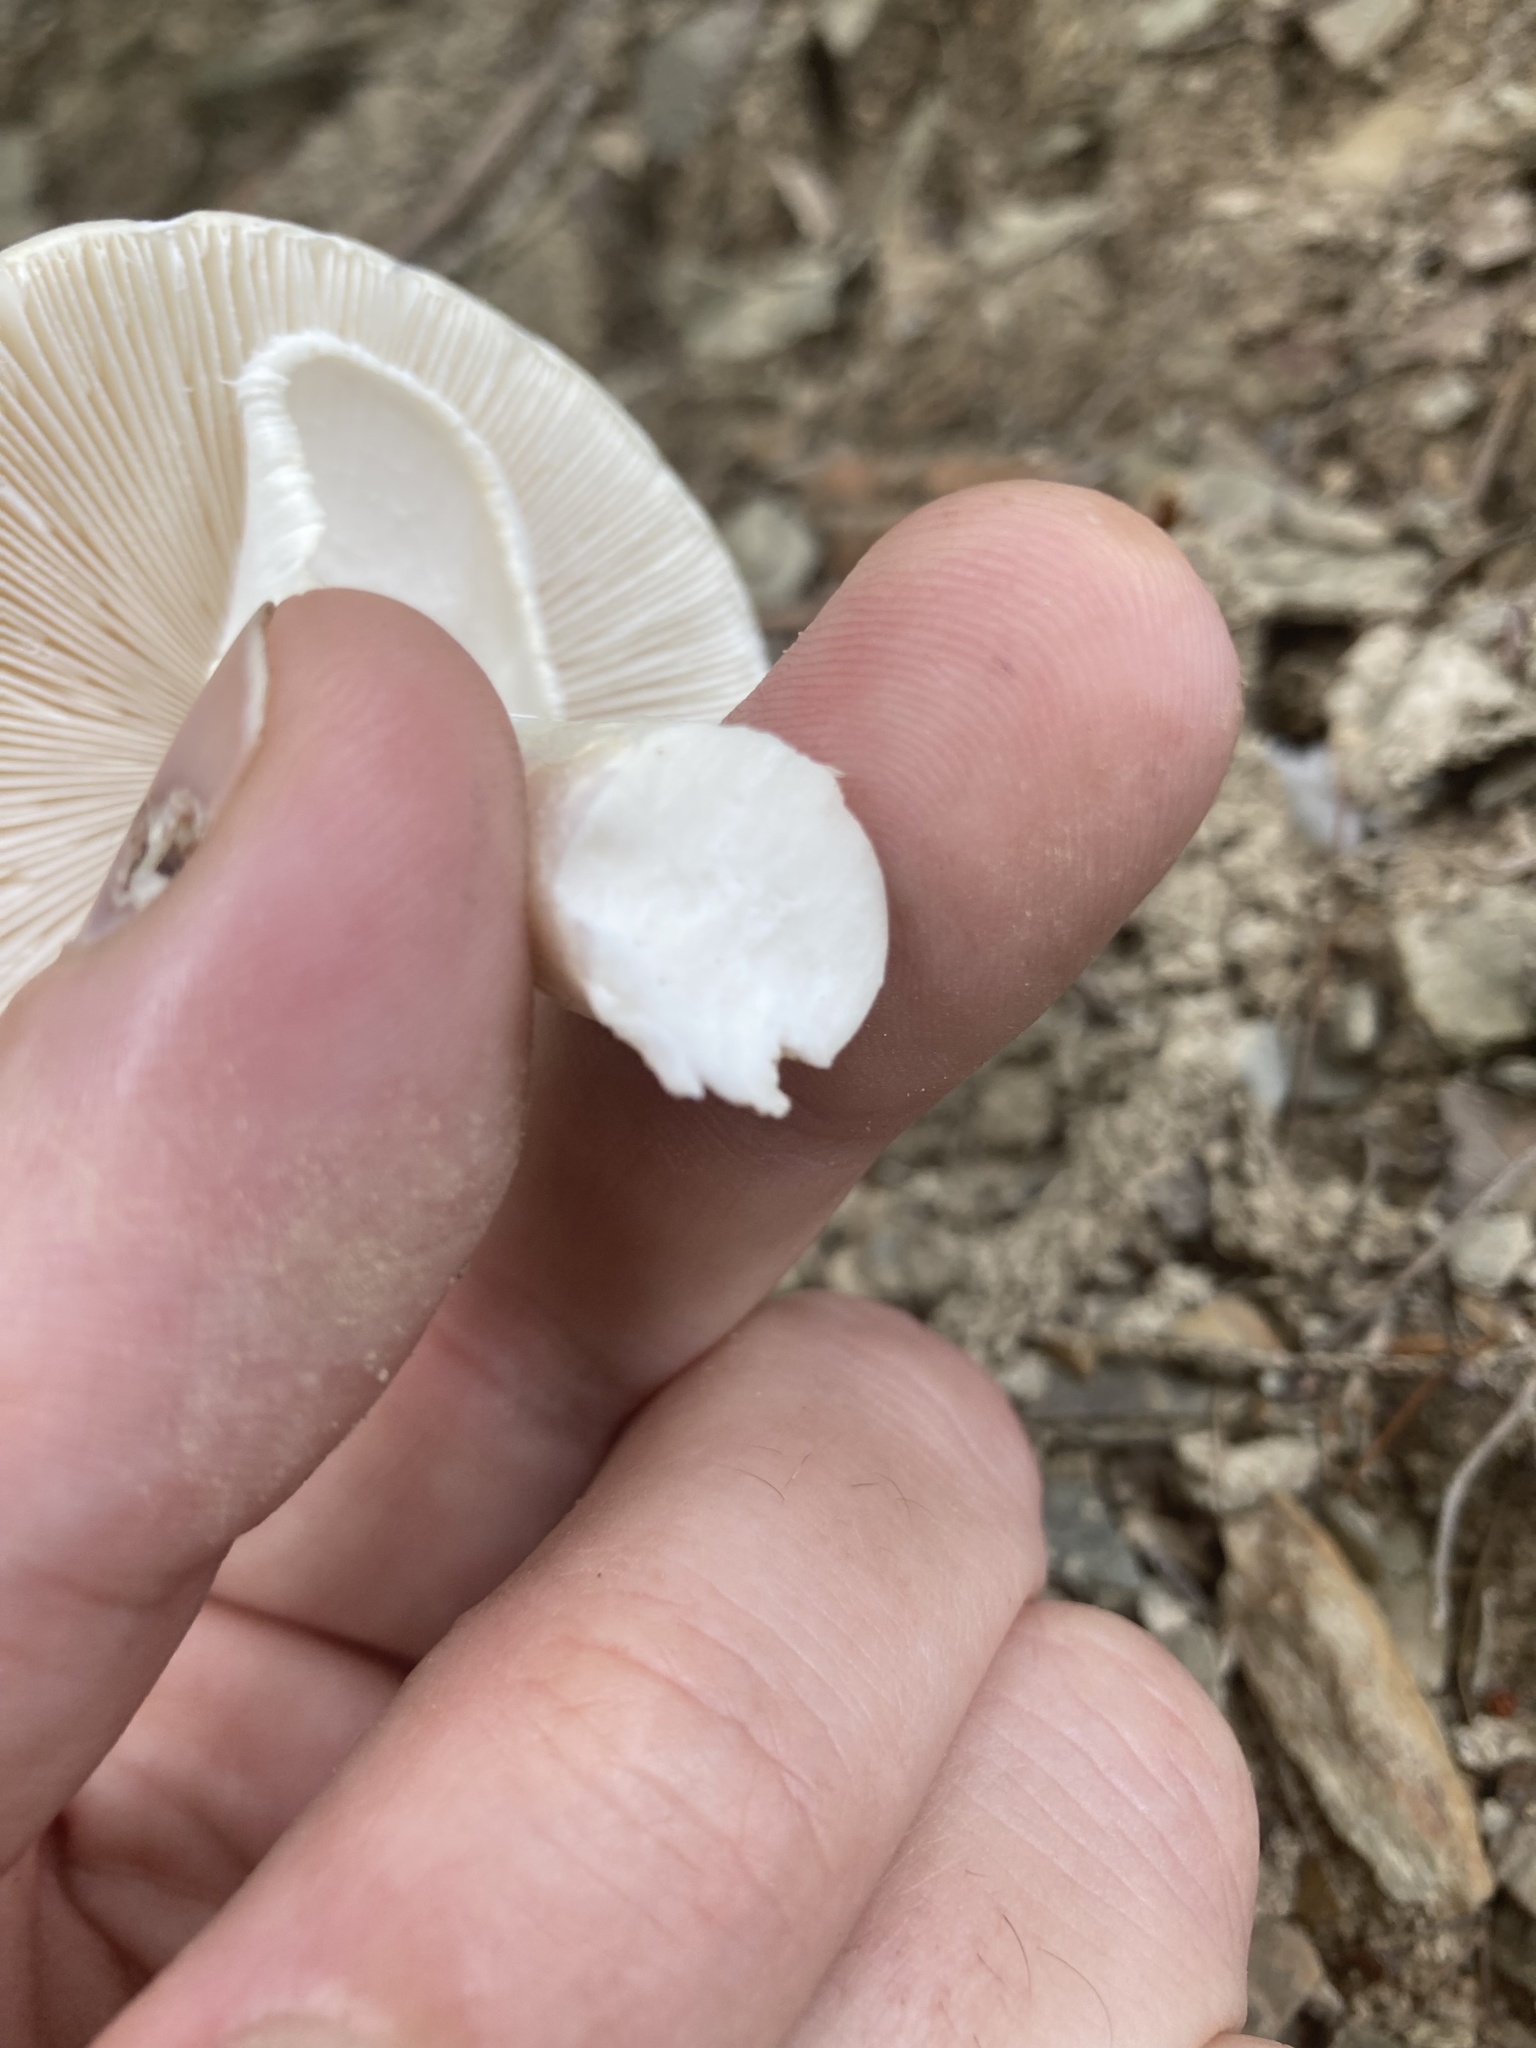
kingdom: Fungi
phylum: Basidiomycota
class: Agaricomycetes
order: Agaricales
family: Amanitaceae
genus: Amanita
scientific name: Amanita bisporigera
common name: Eastern north american destroying angel
